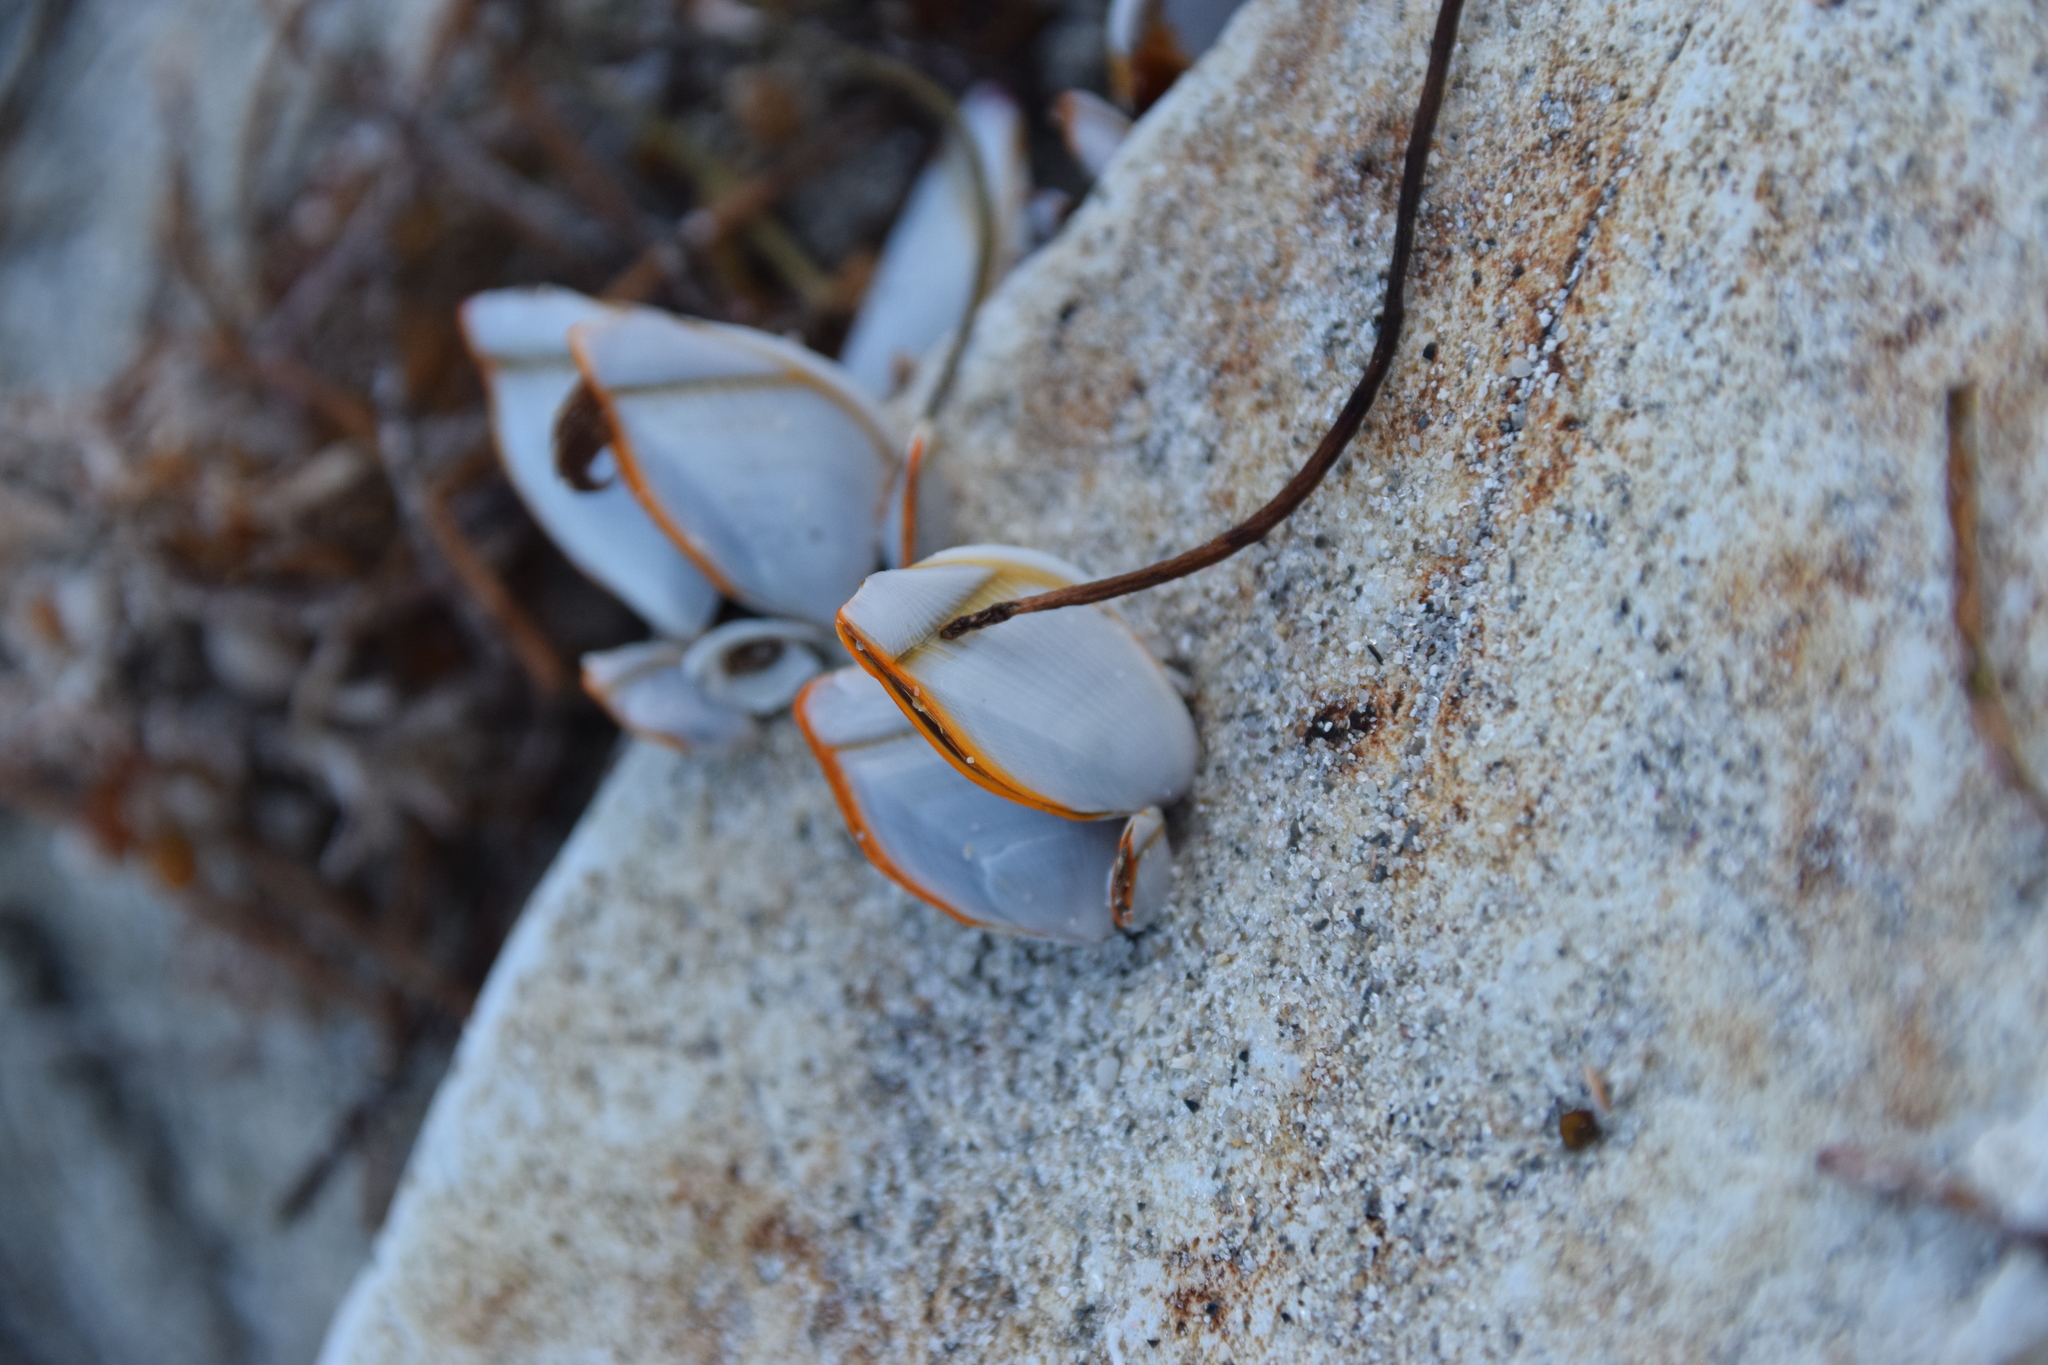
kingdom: Animalia
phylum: Arthropoda
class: Maxillopoda
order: Pedunculata
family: Lepadidae
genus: Lepas
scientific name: Lepas anserifera
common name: Goose barnacle
